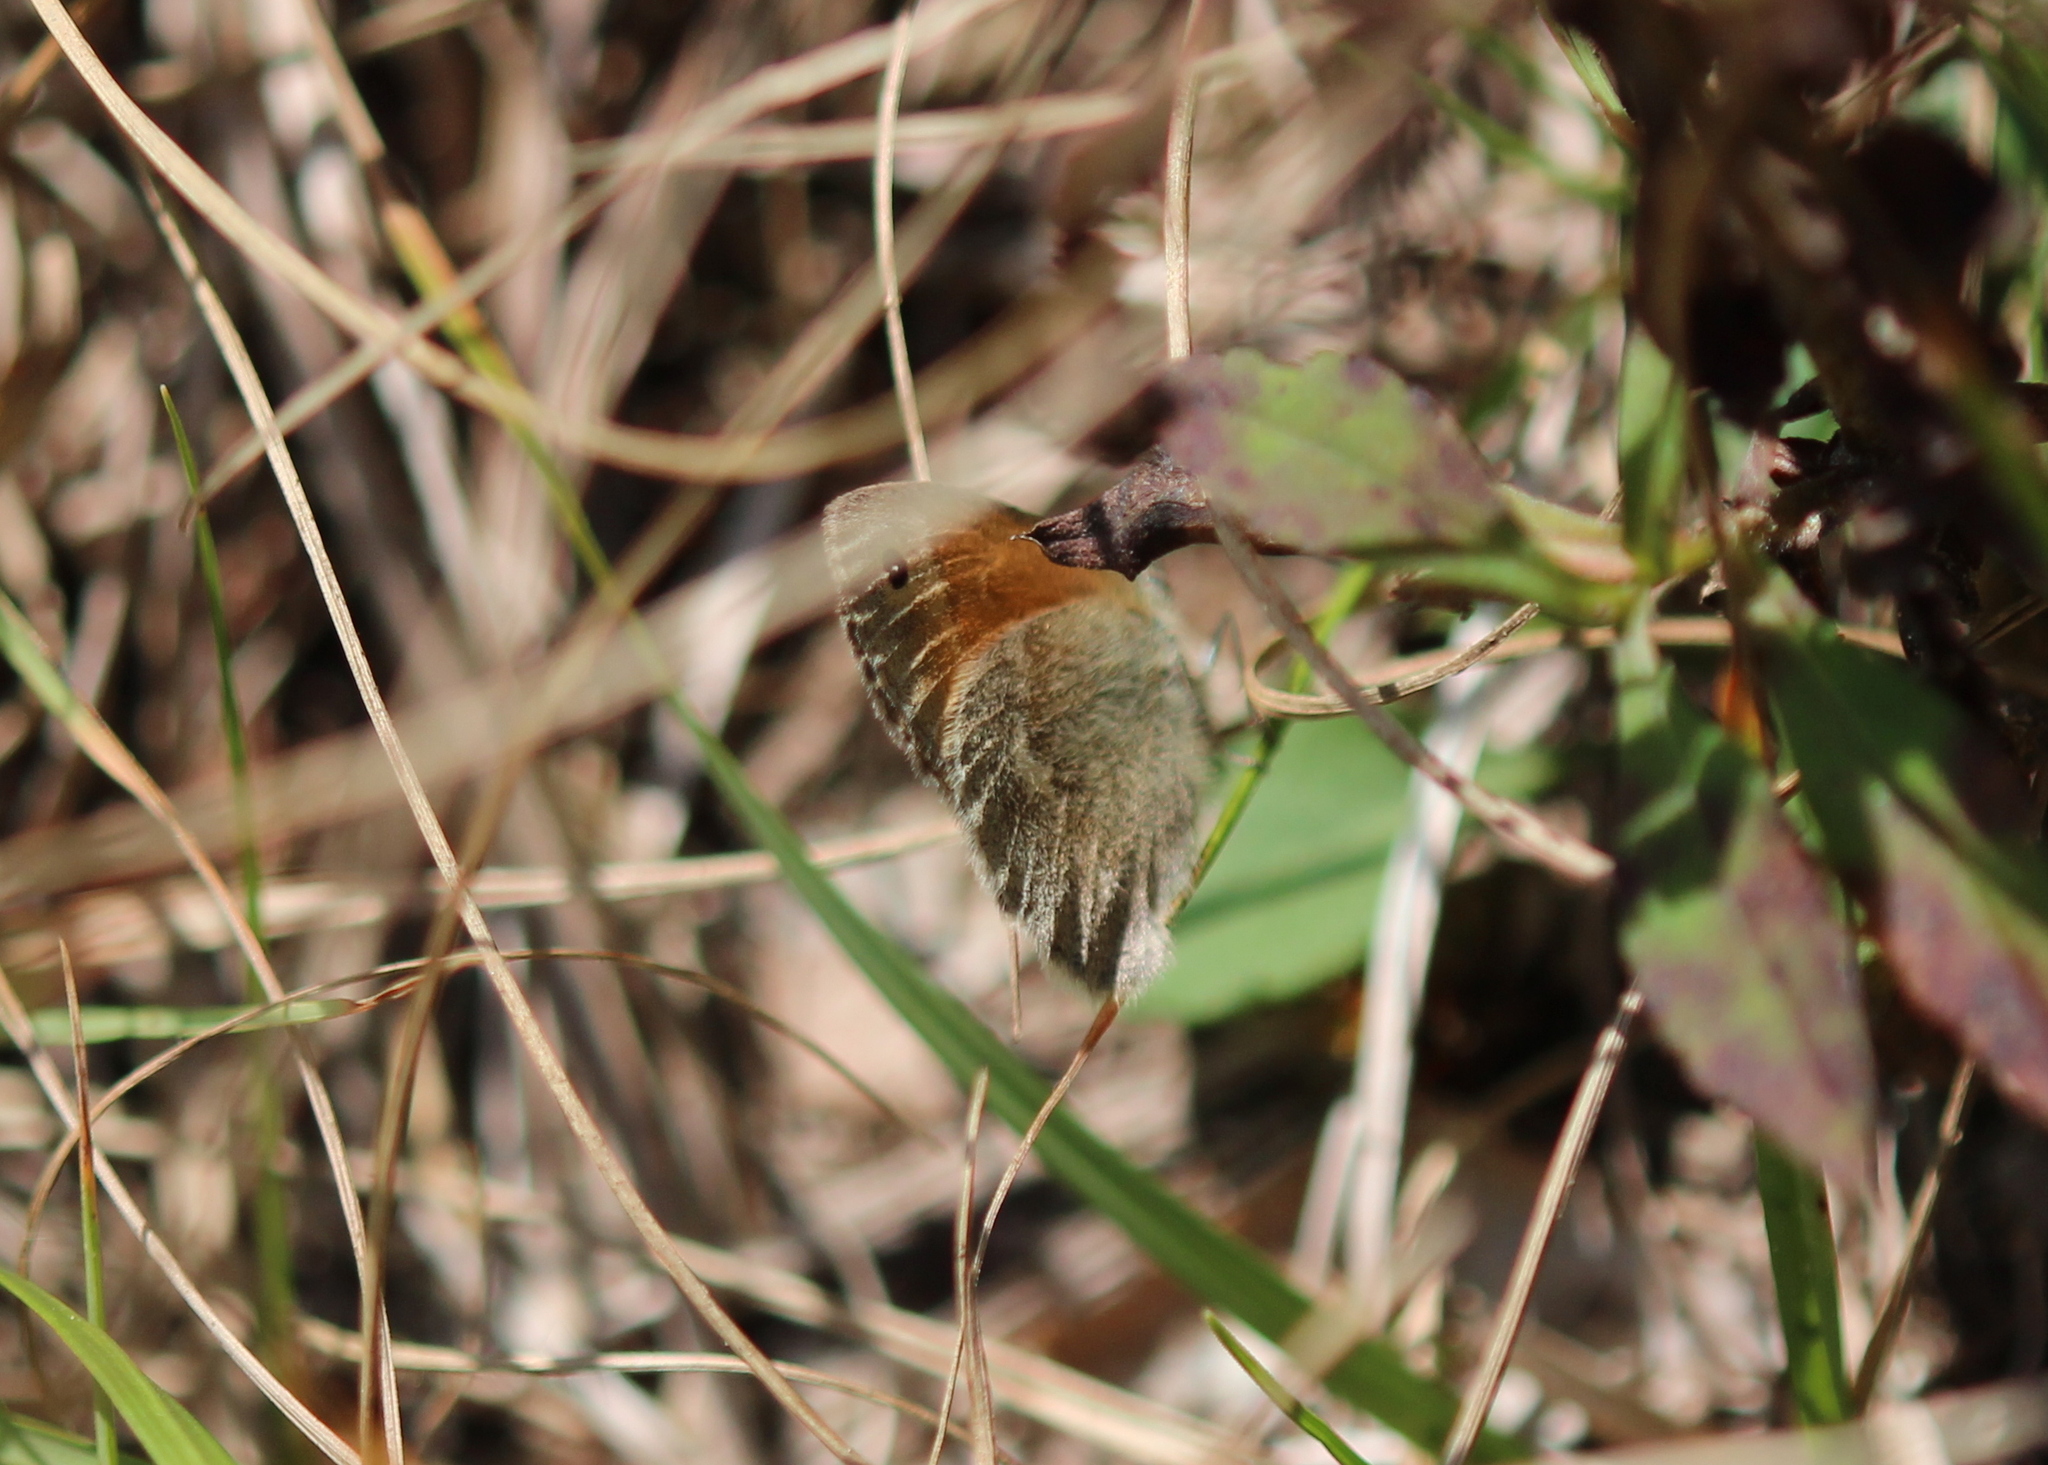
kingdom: Animalia
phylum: Arthropoda
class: Insecta
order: Lepidoptera
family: Nymphalidae
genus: Coenonympha
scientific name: Coenonympha california
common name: Common ringlet
